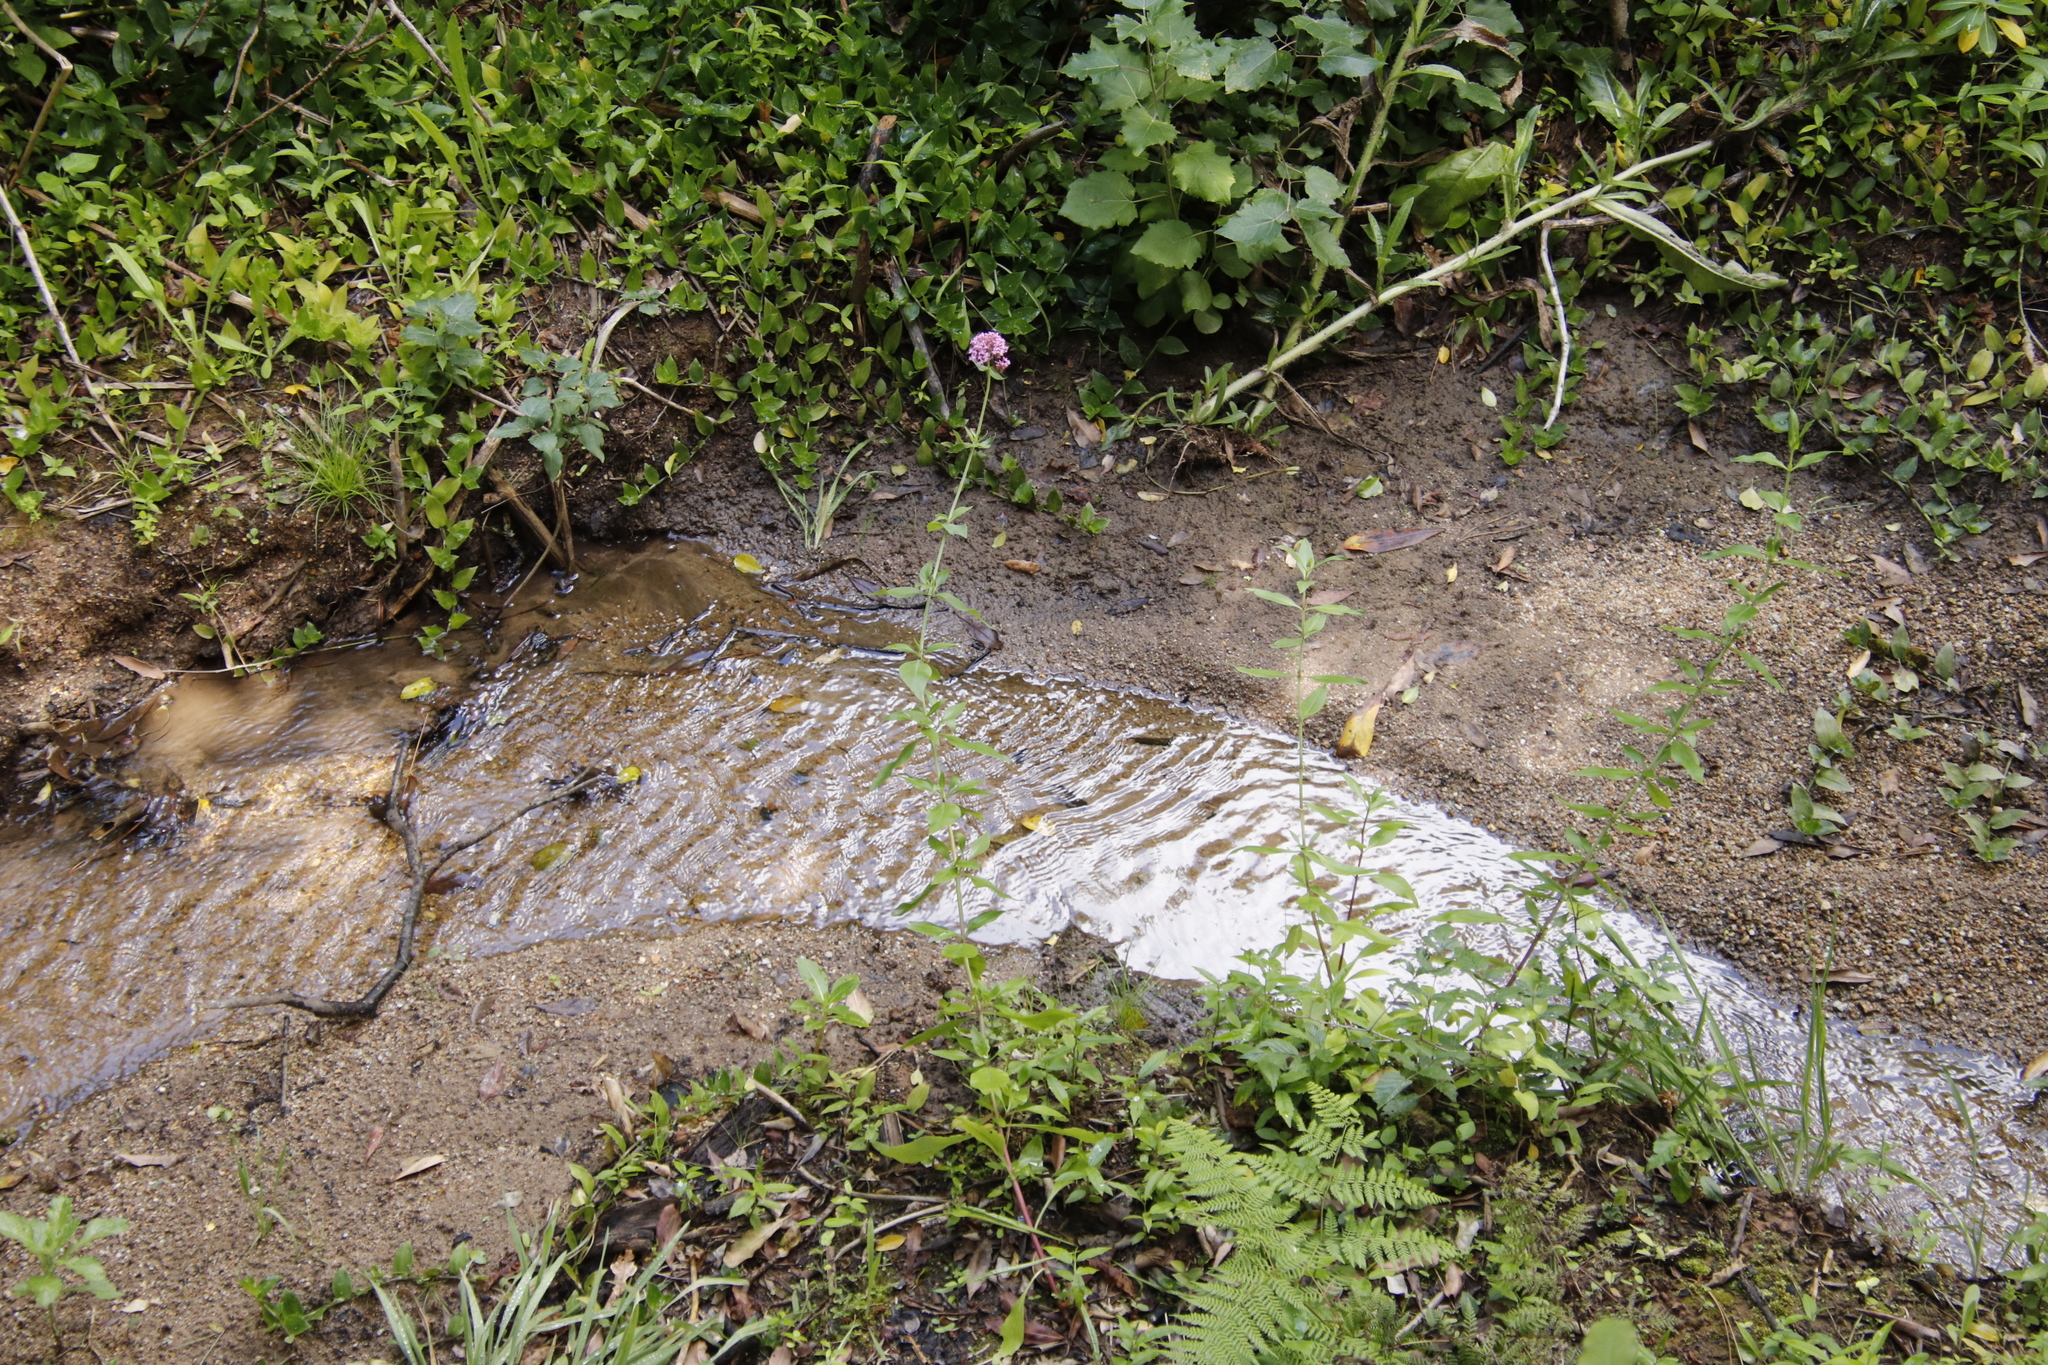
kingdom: Plantae
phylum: Tracheophyta
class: Magnoliopsida
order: Dipsacales
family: Caprifoliaceae
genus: Centranthus
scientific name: Centranthus ruber
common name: Red valerian
